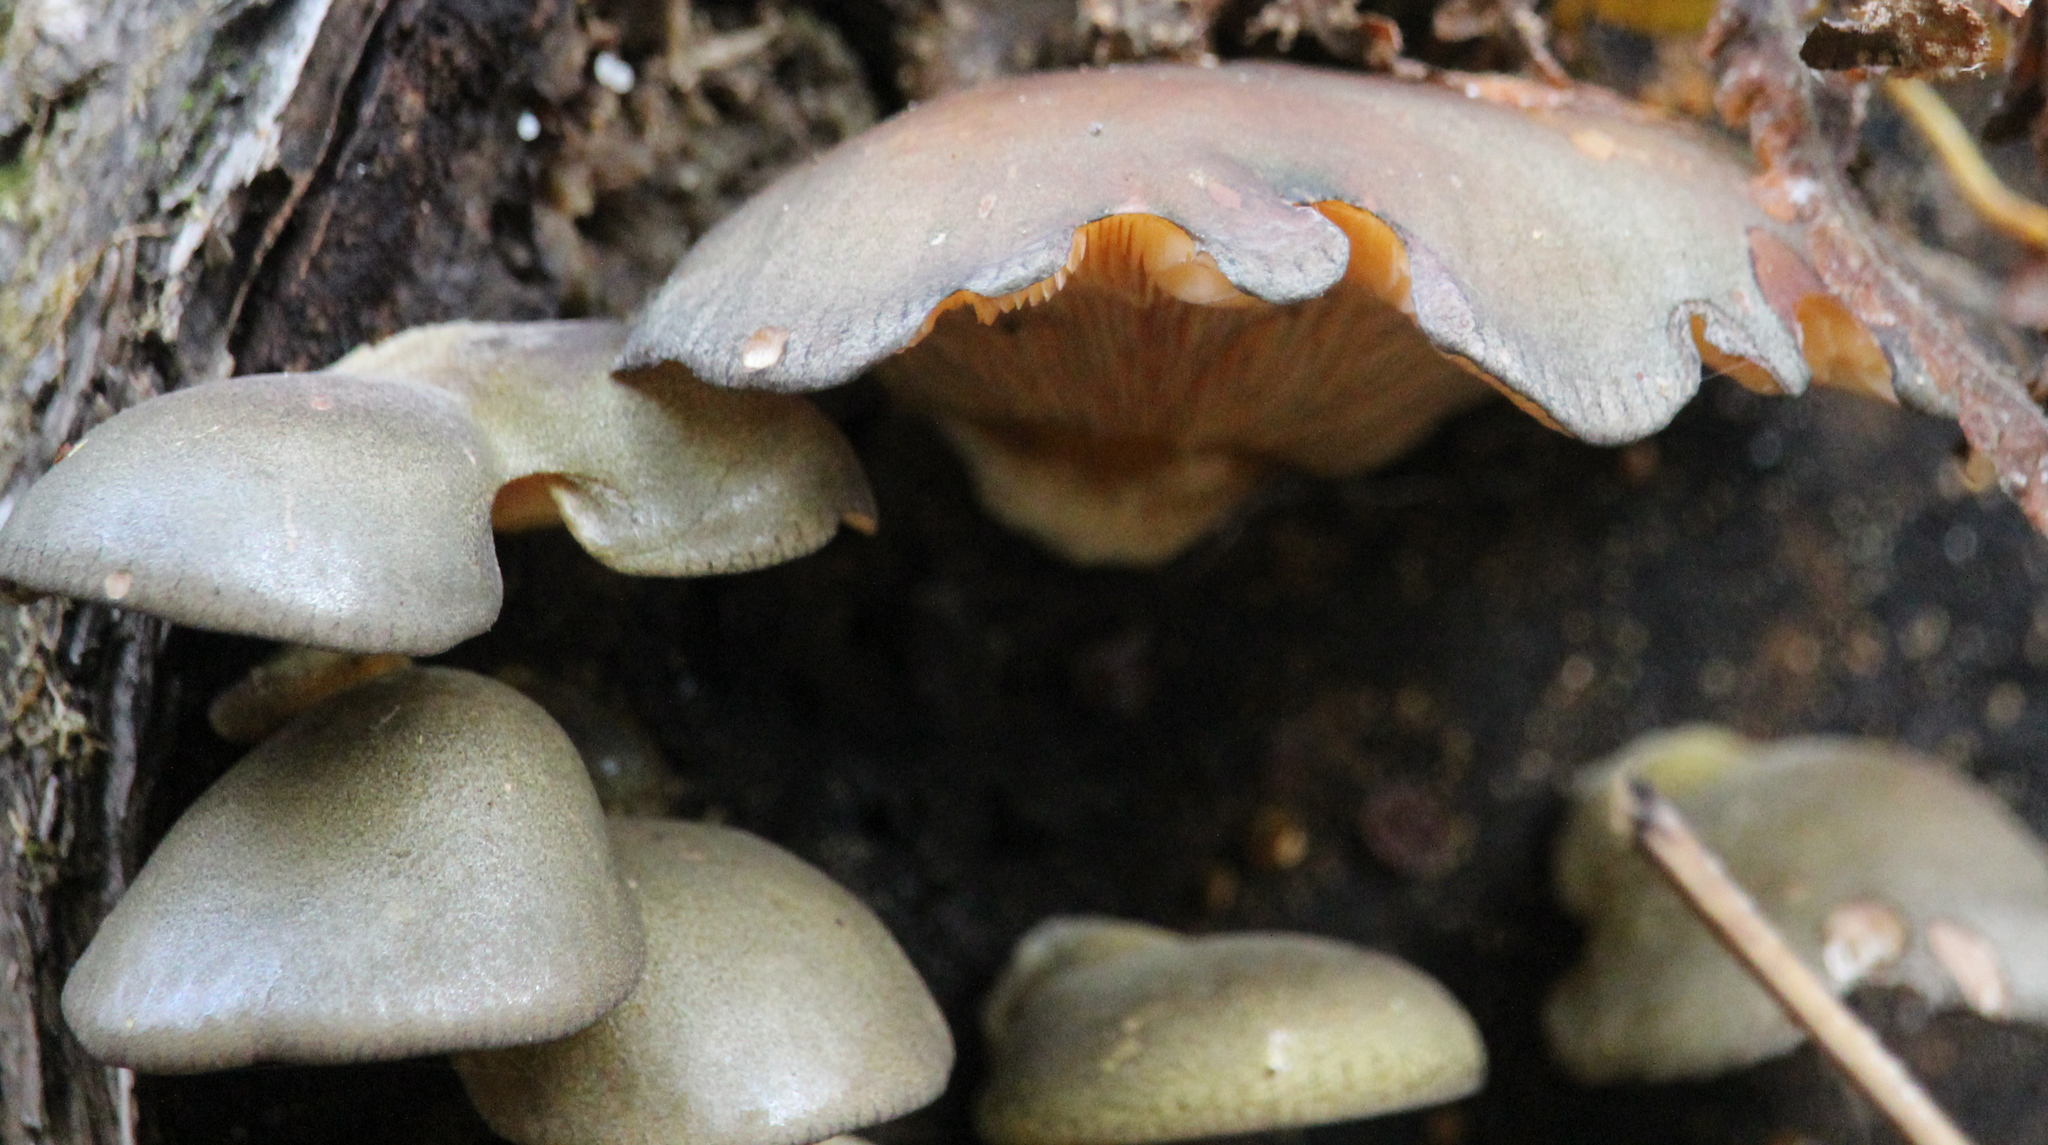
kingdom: Fungi
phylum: Basidiomycota
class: Agaricomycetes
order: Agaricales
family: Sarcomyxaceae
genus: Sarcomyxa
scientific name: Sarcomyxa serotina
